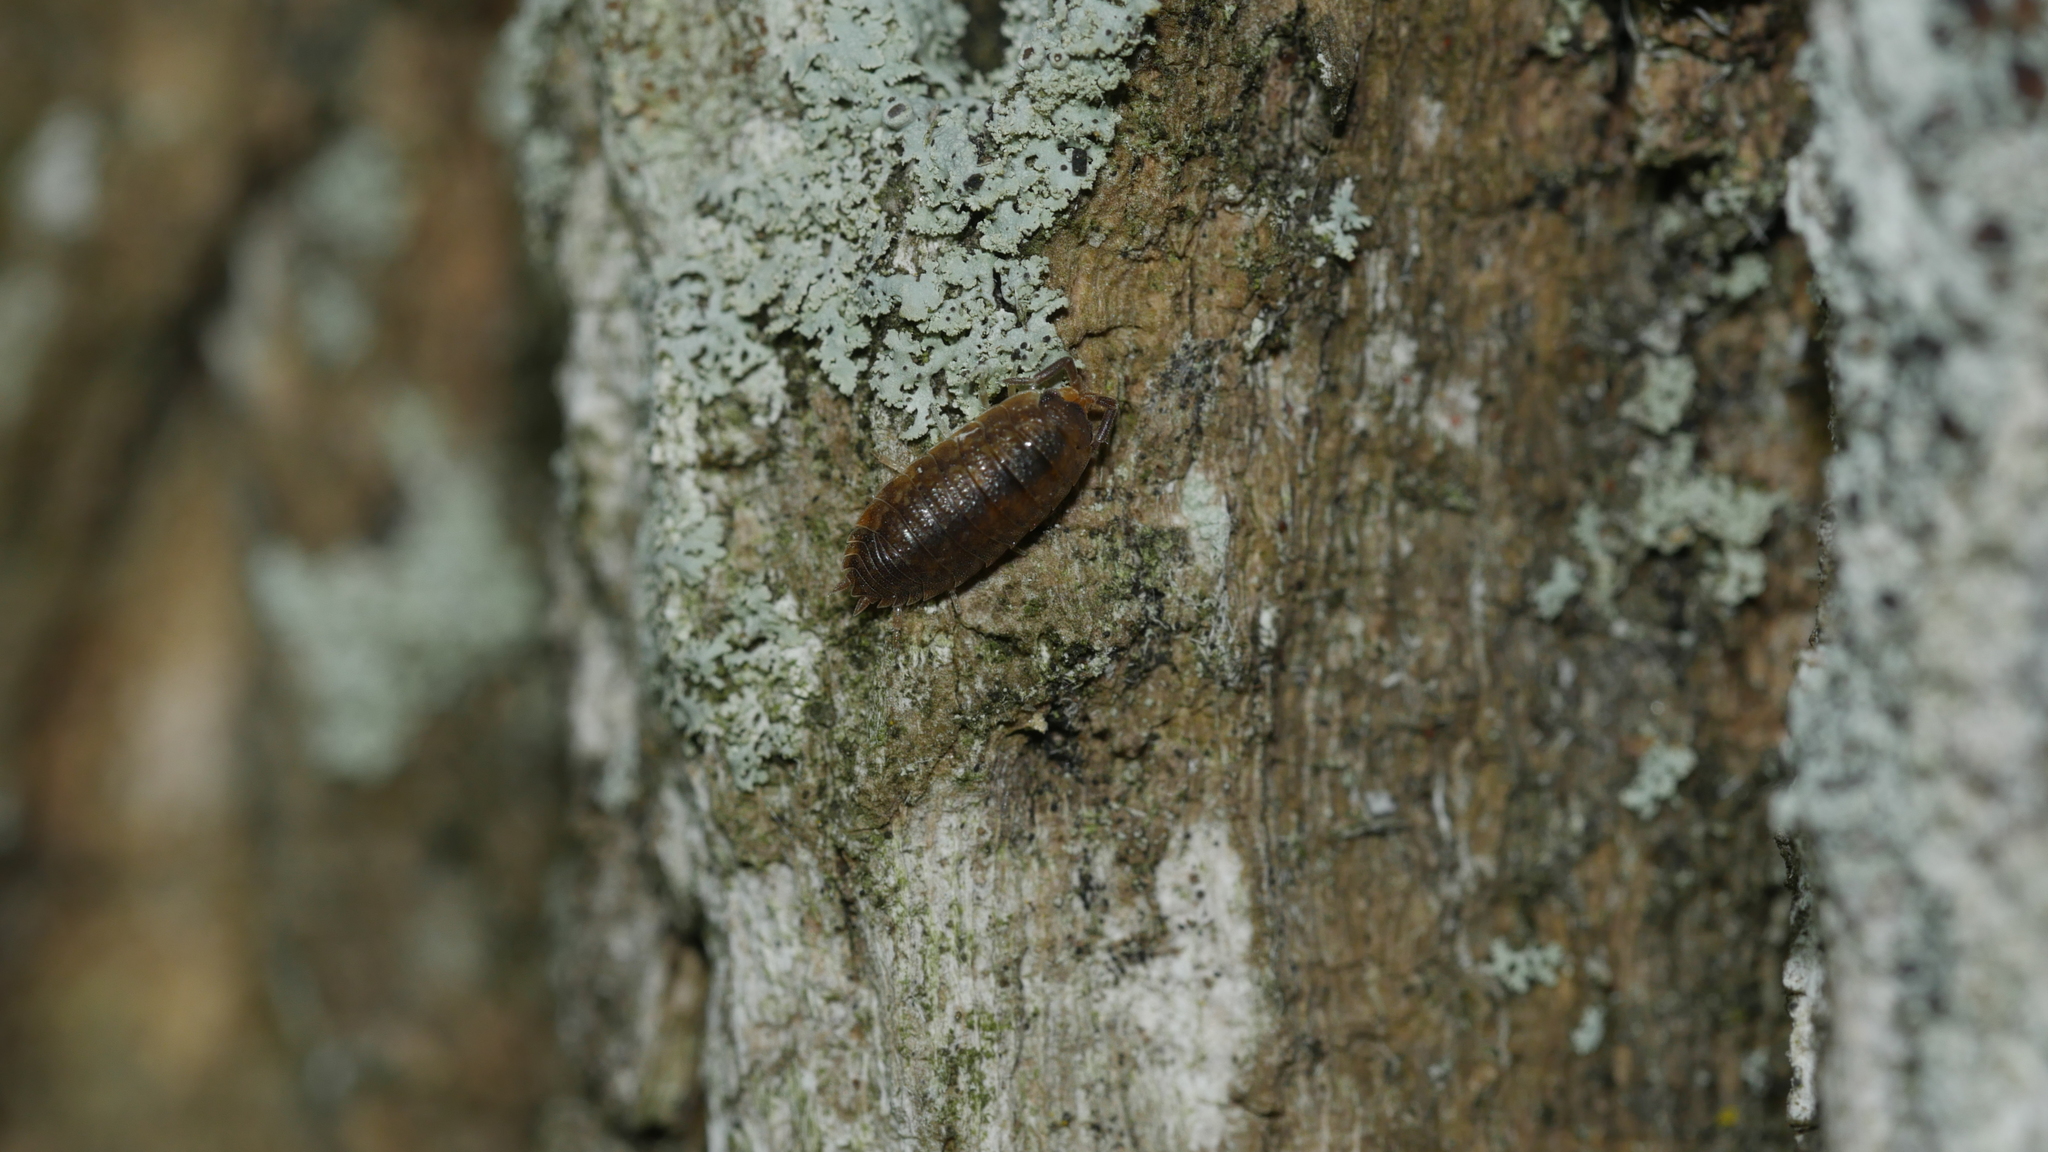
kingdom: Animalia
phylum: Arthropoda
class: Malacostraca
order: Isopoda
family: Porcellionidae
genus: Porcellio
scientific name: Porcellio scaber
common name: Common rough woodlouse
